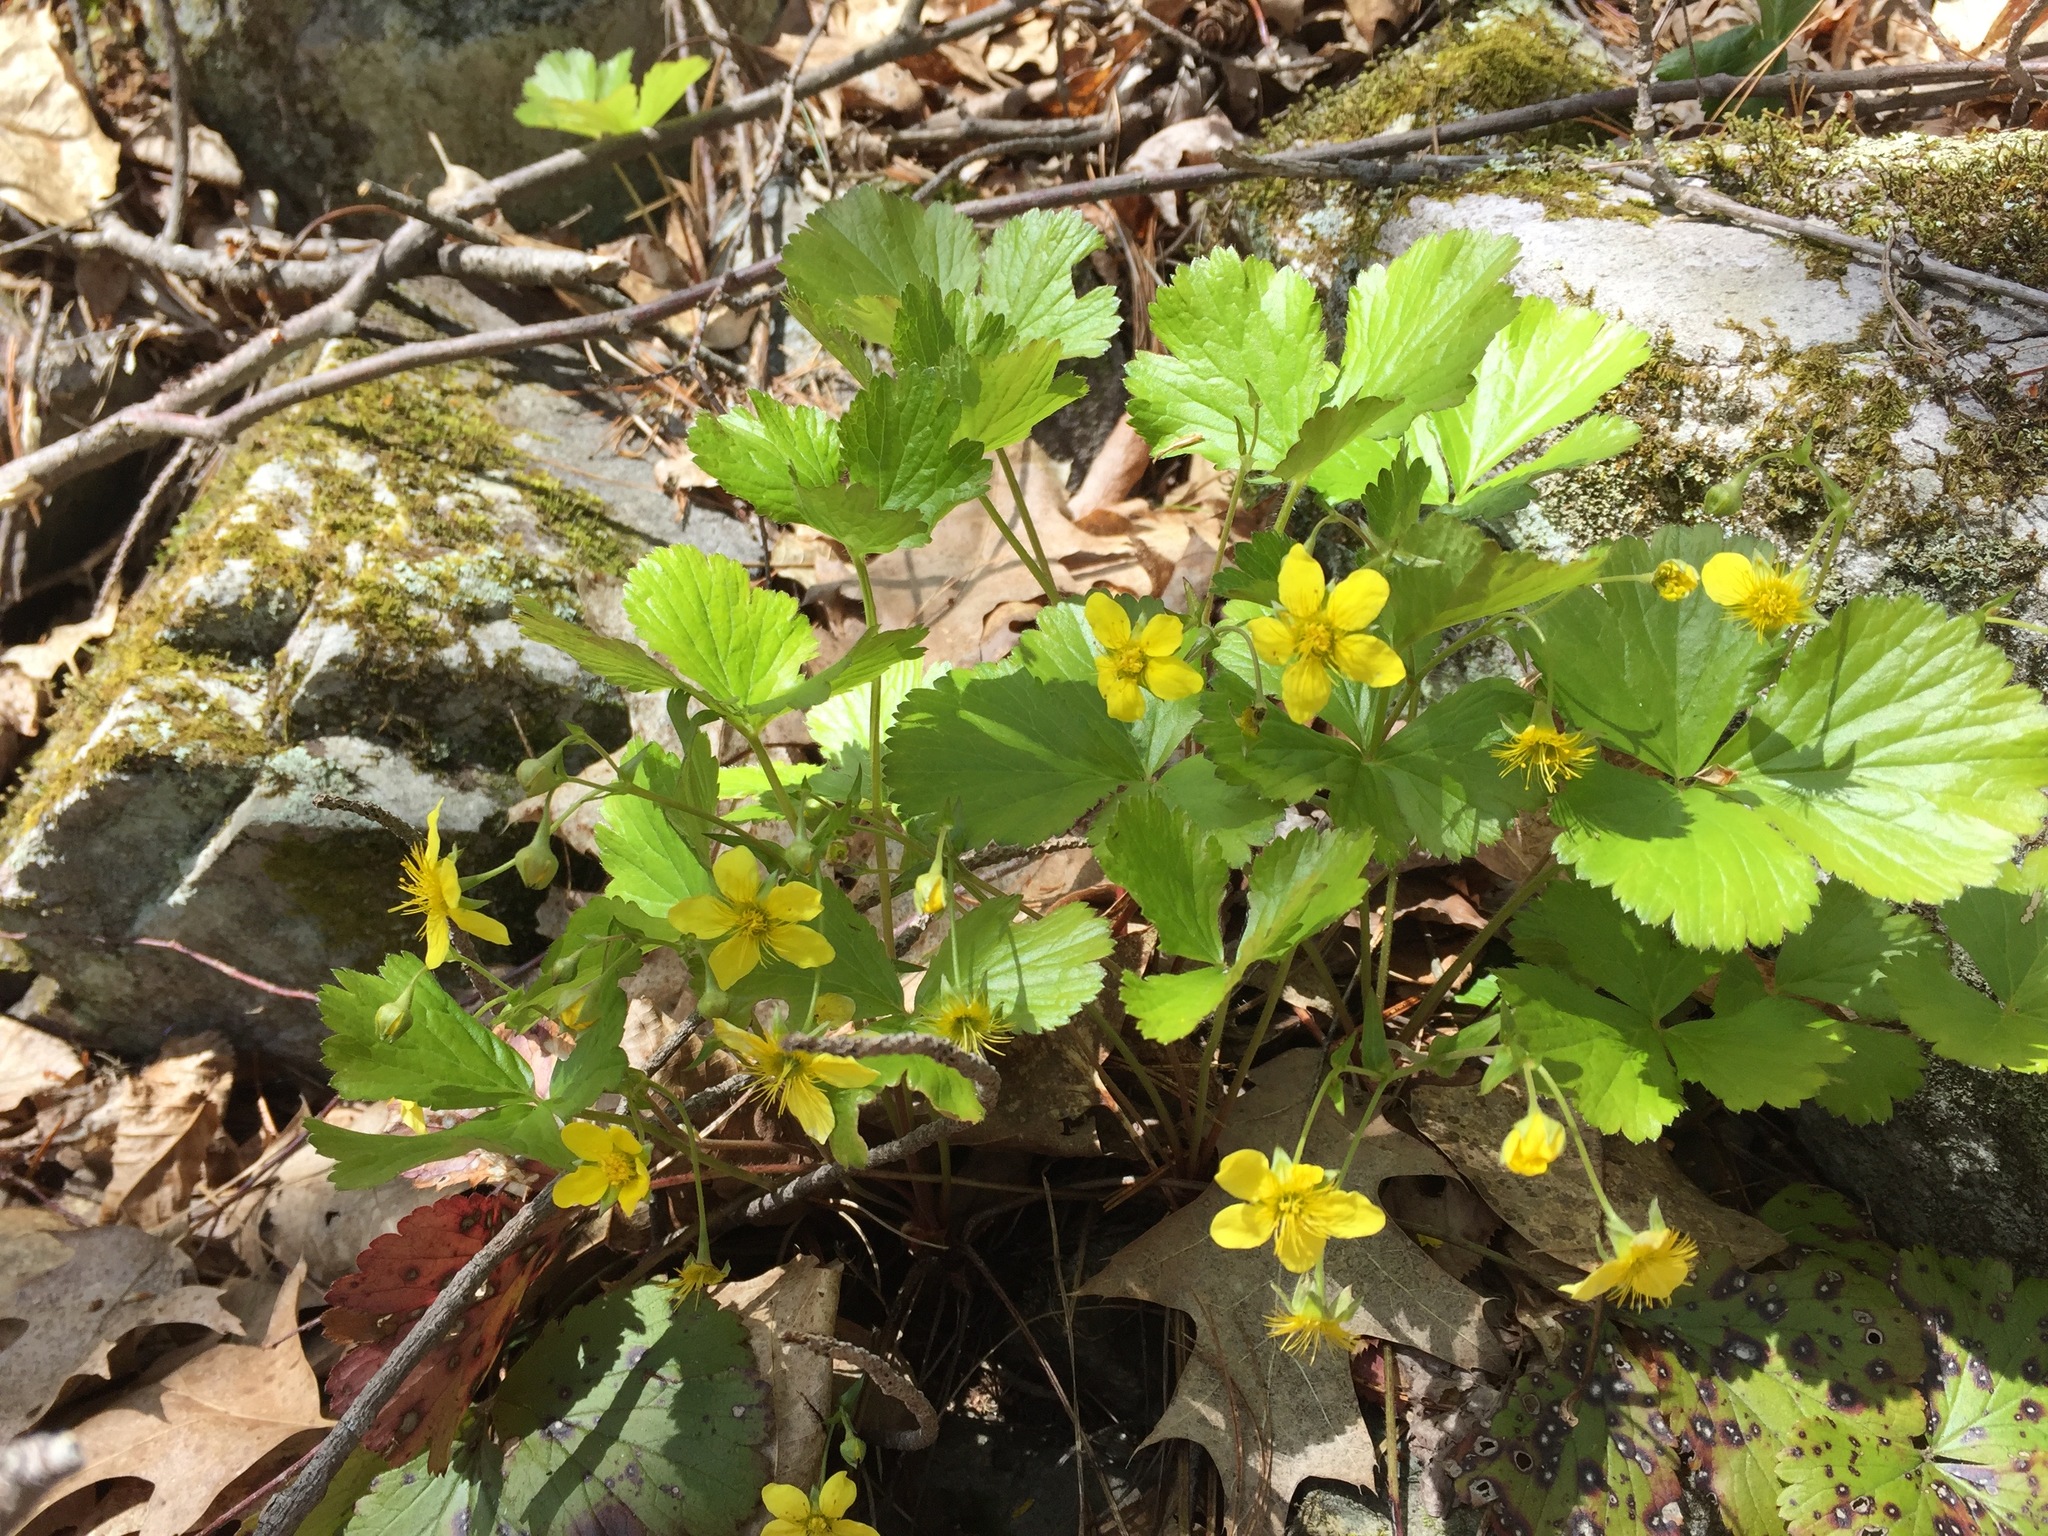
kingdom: Plantae
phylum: Tracheophyta
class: Magnoliopsida
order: Rosales
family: Rosaceae
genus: Geum
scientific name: Geum fragarioides
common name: Appalachian barren strawberry
